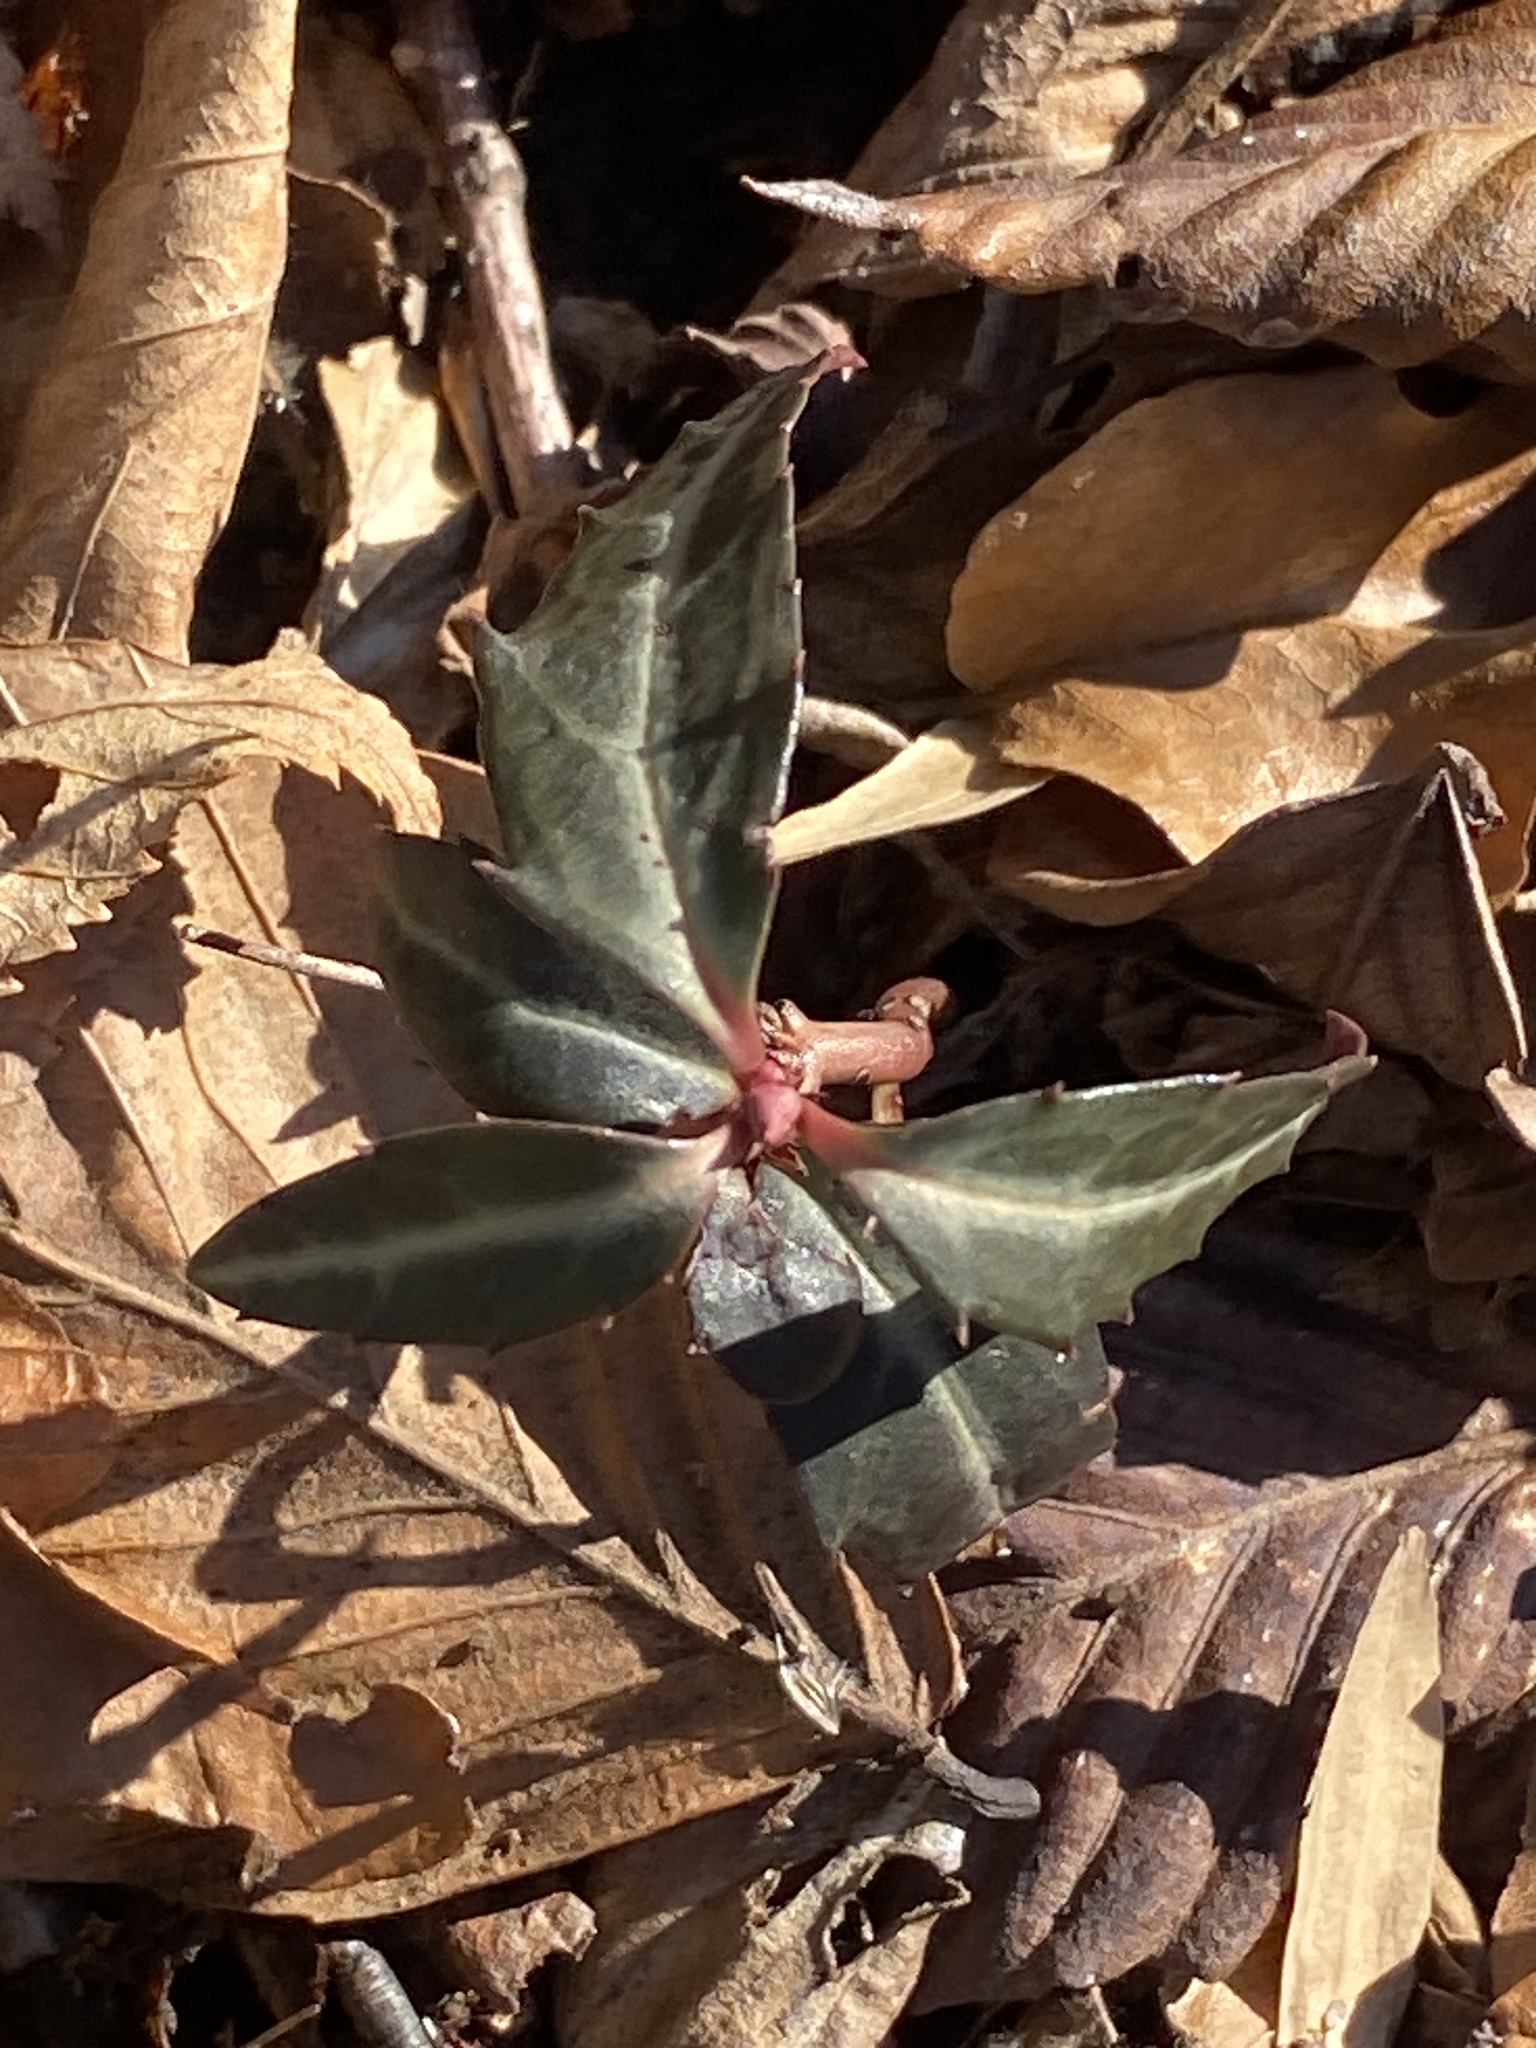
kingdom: Plantae
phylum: Tracheophyta
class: Magnoliopsida
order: Ericales
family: Ericaceae
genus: Chimaphila
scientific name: Chimaphila maculata
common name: Spotted pipsissewa
